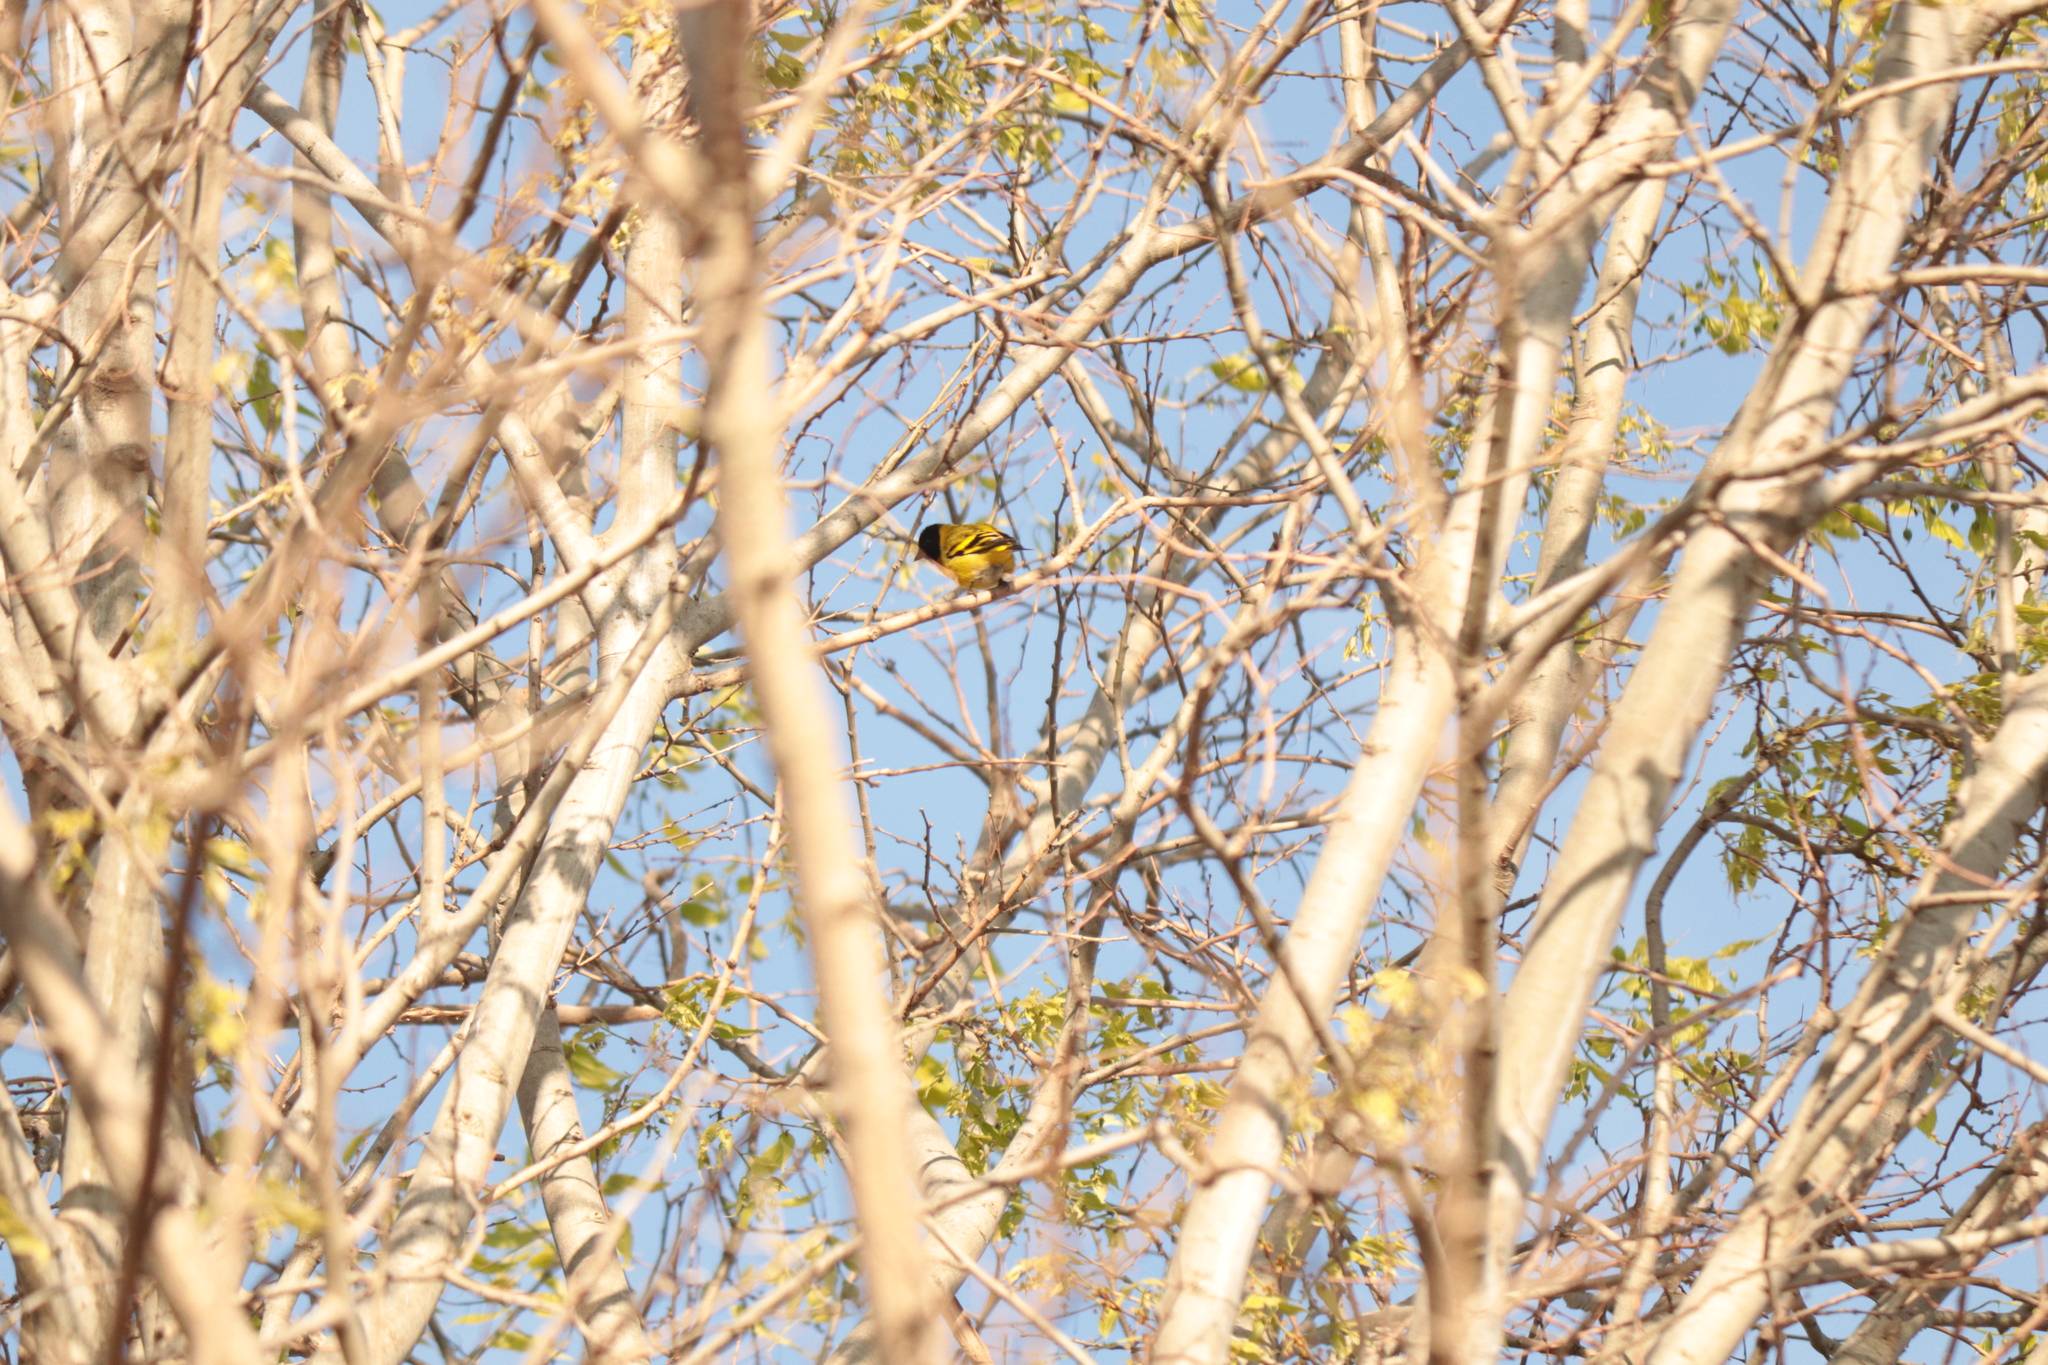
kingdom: Animalia
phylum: Chordata
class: Aves
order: Passeriformes
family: Fringillidae
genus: Spinus
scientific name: Spinus magellanicus
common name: Hooded siskin
